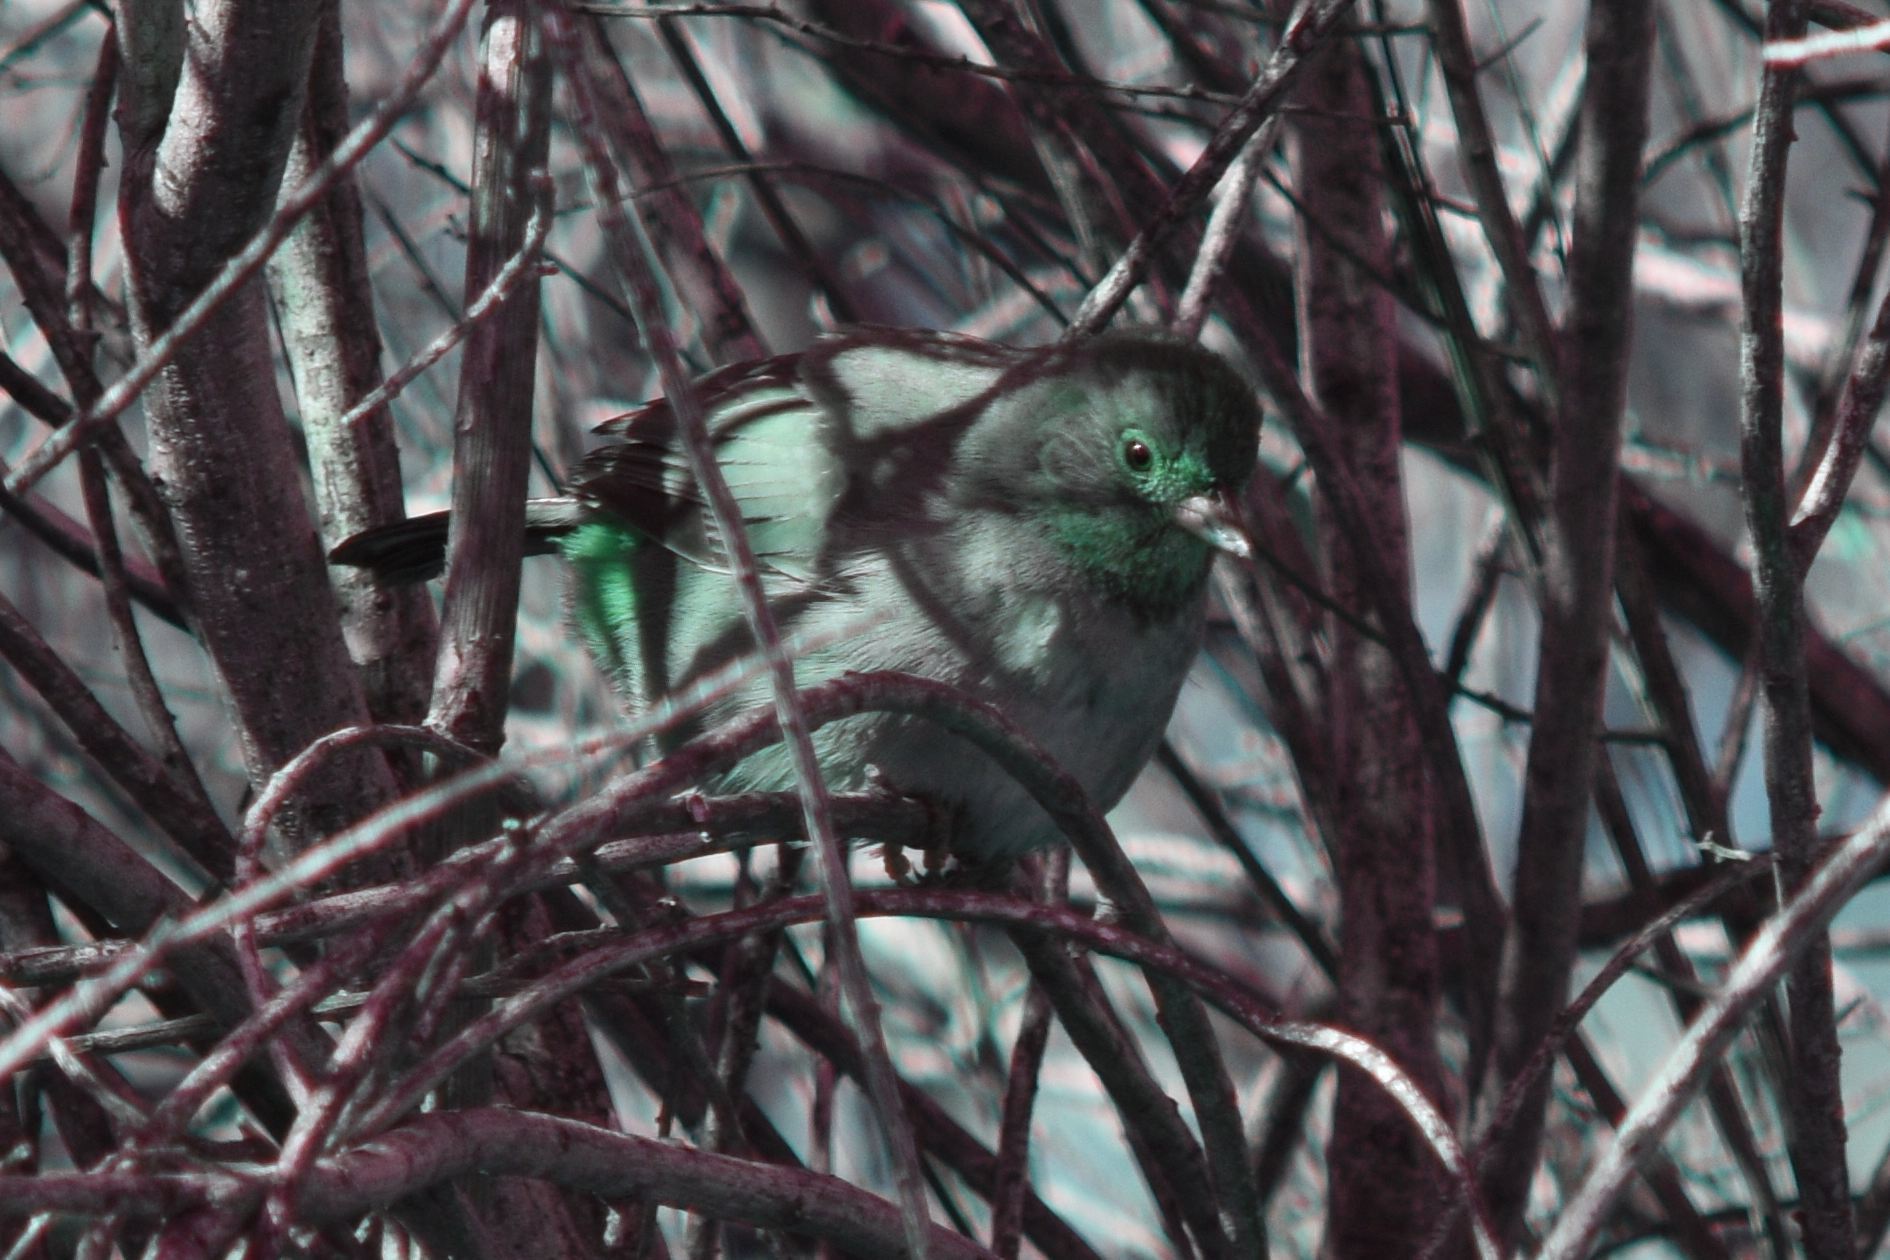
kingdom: Animalia
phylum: Chordata
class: Aves
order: Passeriformes
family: Passerellidae
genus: Melozone
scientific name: Melozone crissalis
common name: California towhee
